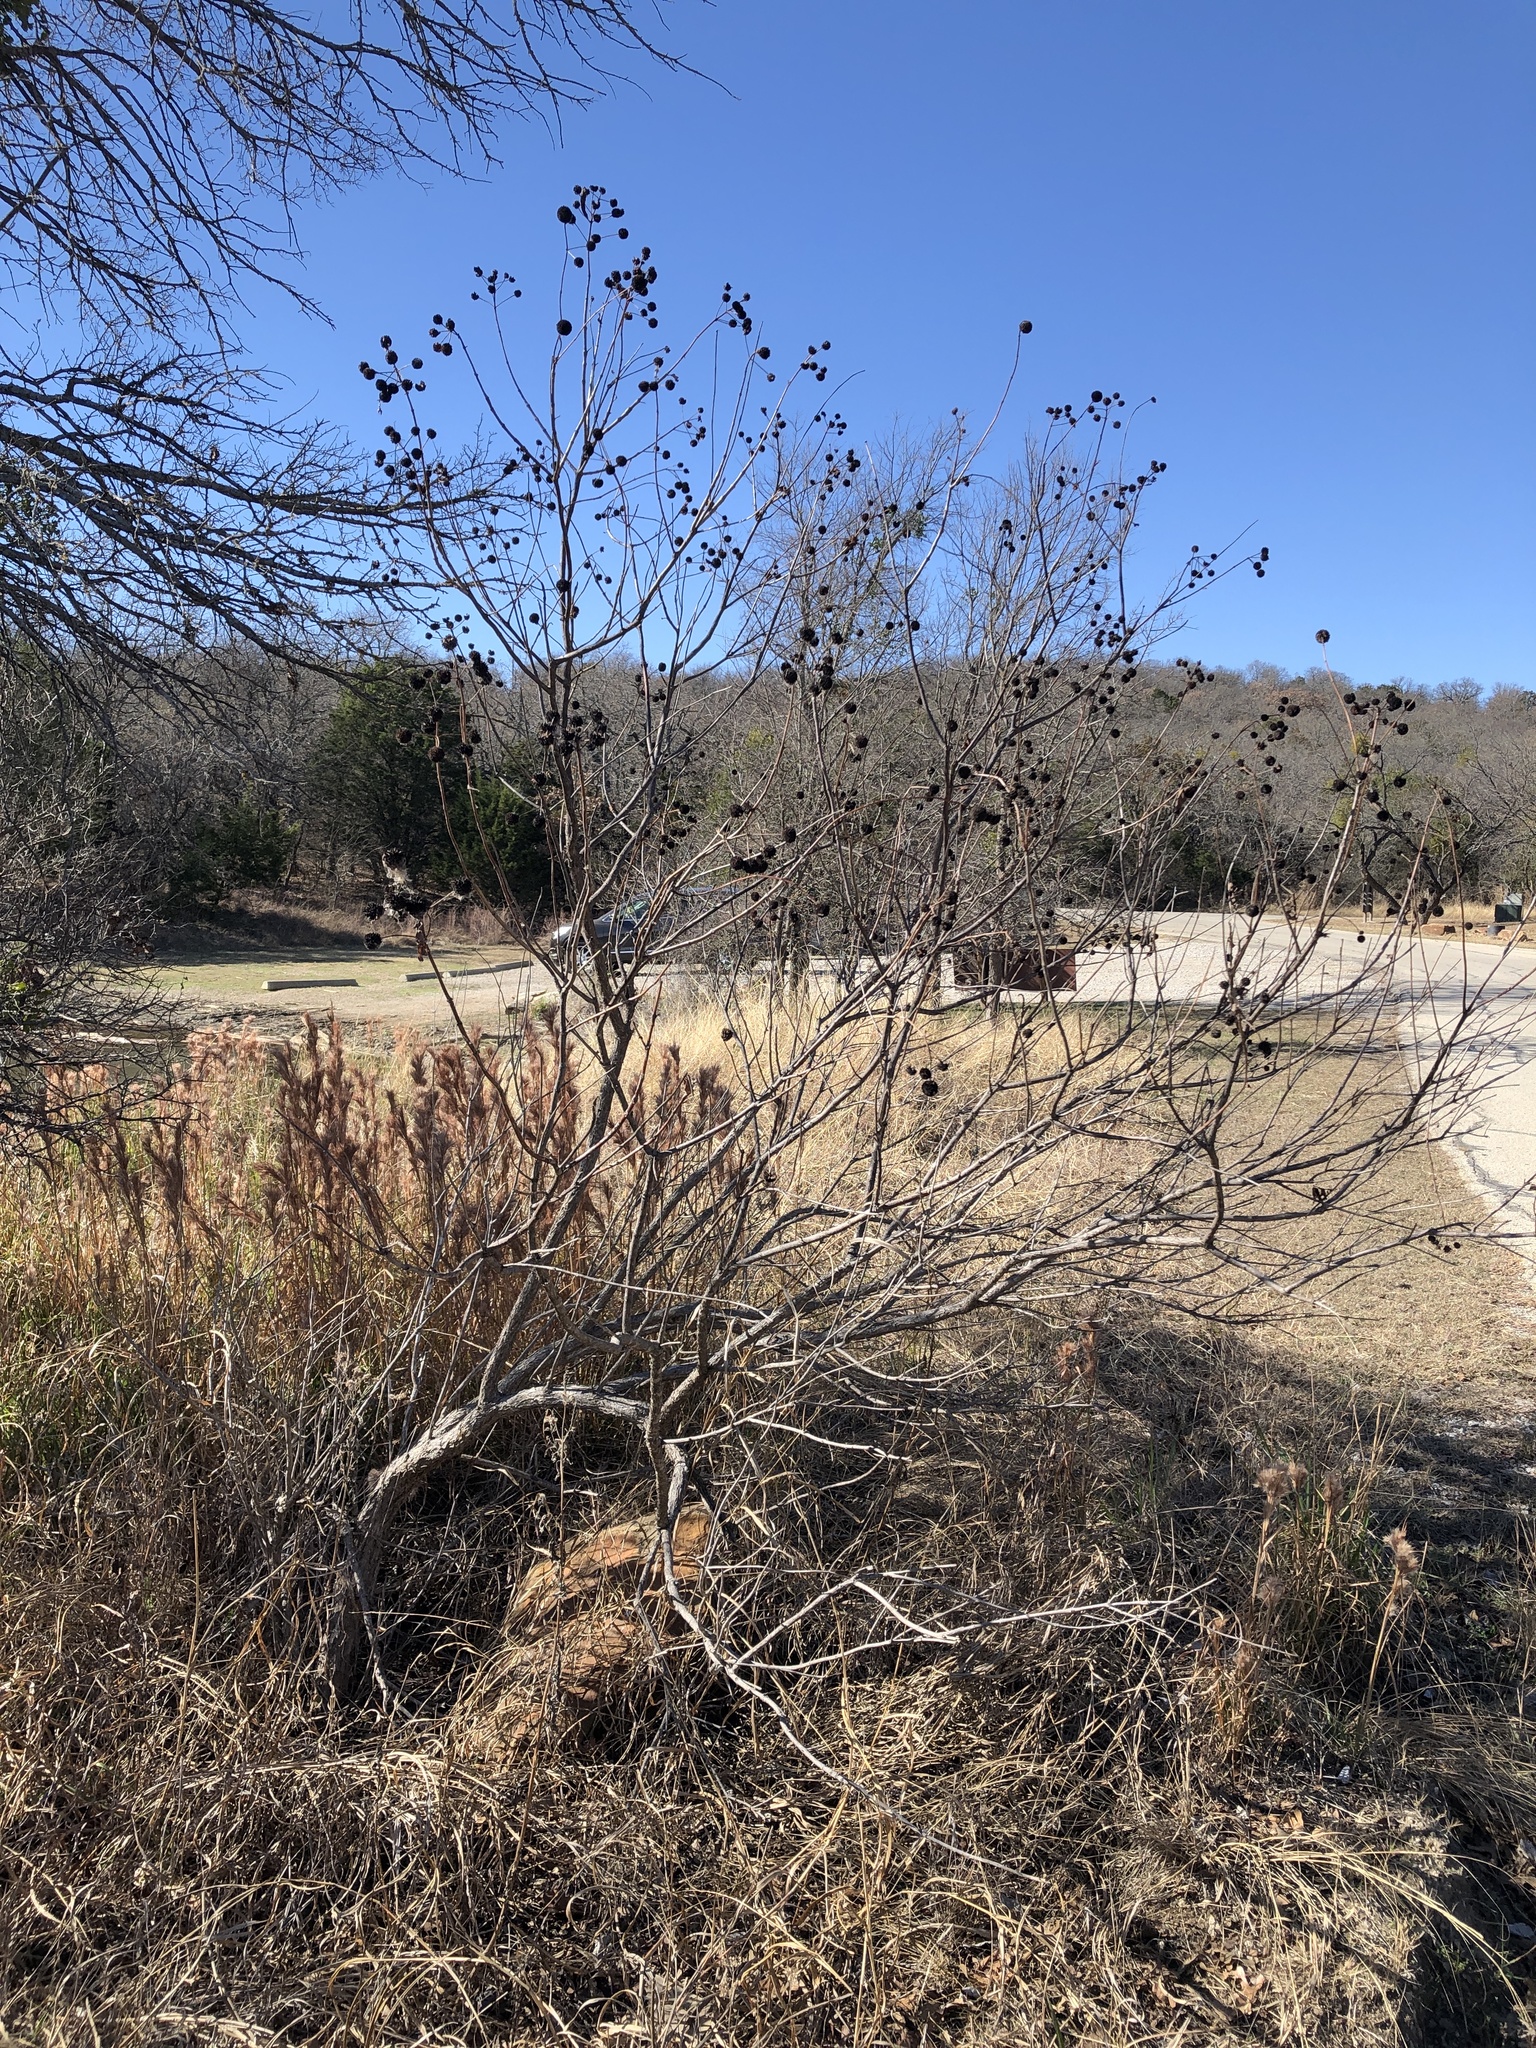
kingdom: Plantae
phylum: Tracheophyta
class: Magnoliopsida
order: Gentianales
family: Rubiaceae
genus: Cephalanthus
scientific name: Cephalanthus occidentalis
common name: Button-willow
